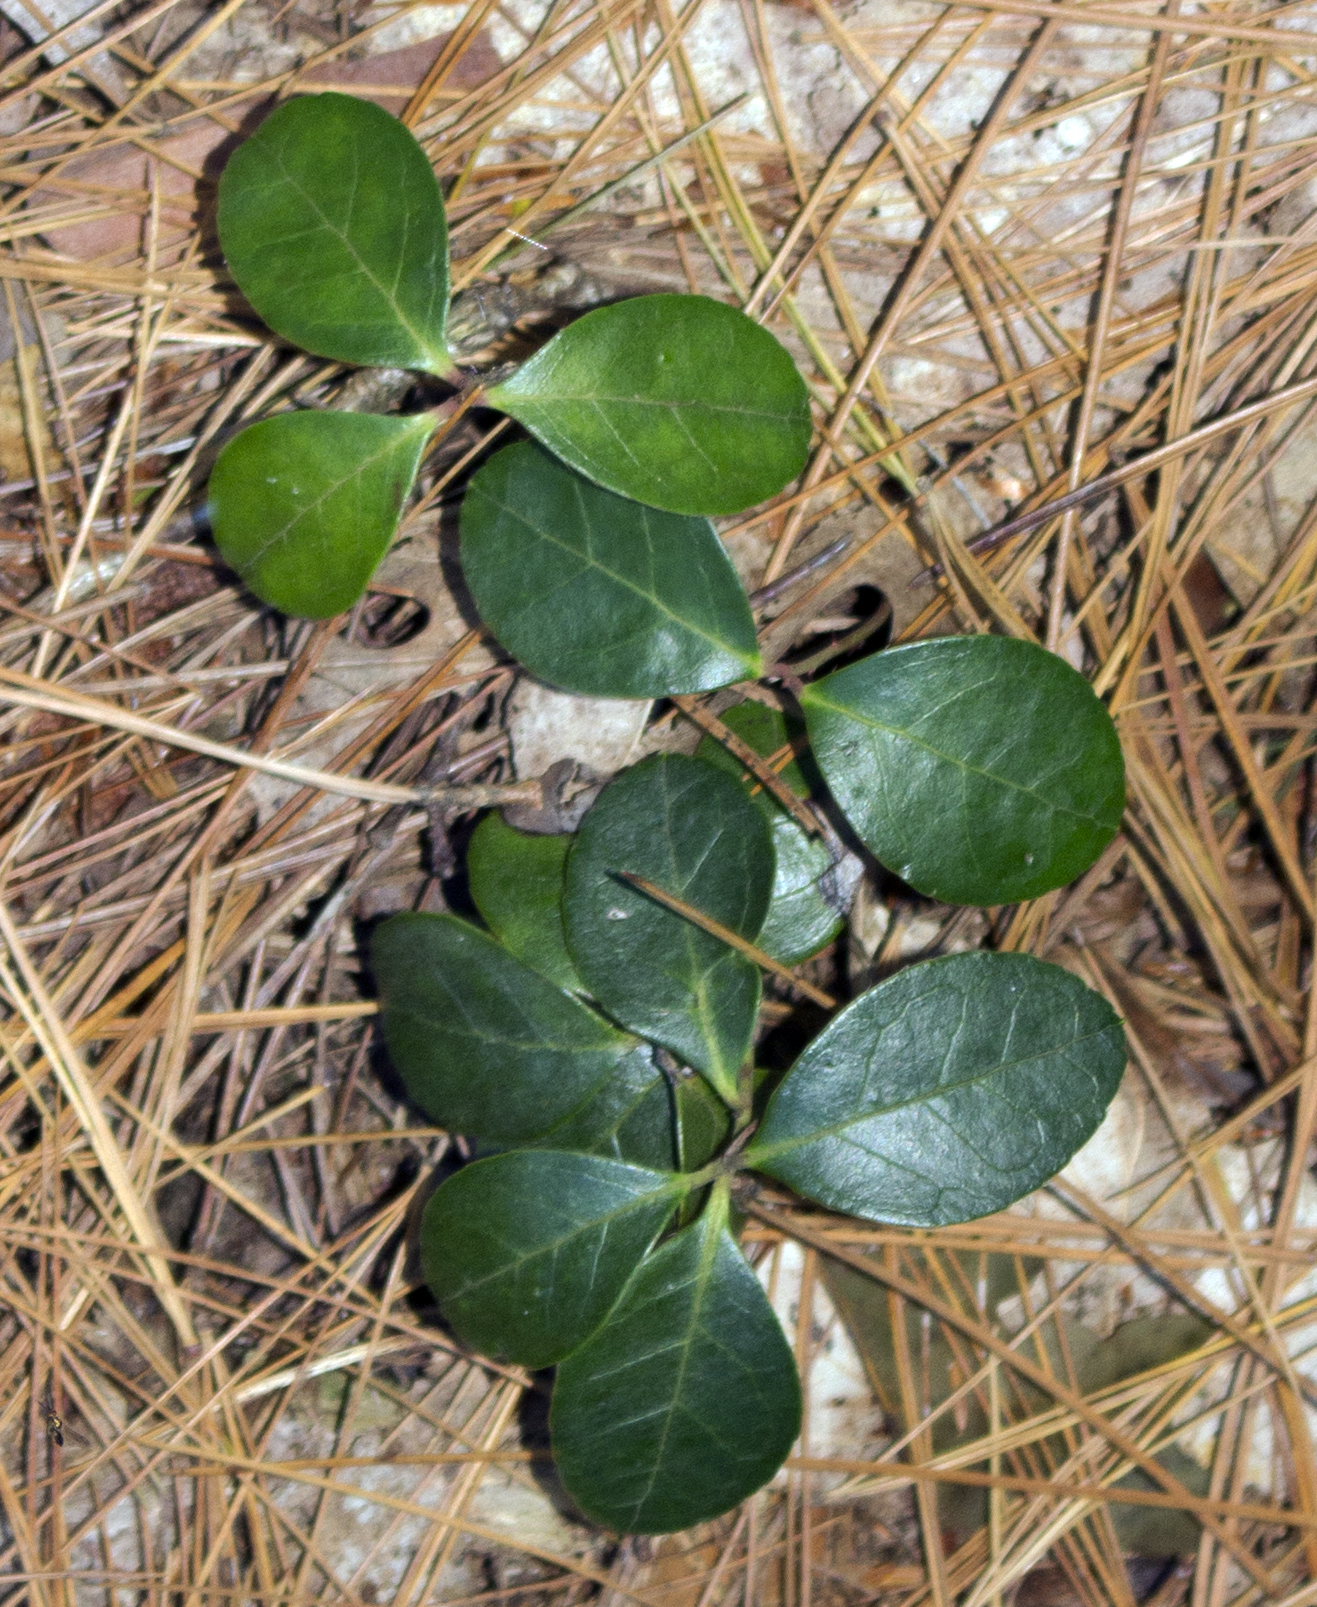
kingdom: Plantae
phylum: Tracheophyta
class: Magnoliopsida
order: Ericales
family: Ericaceae
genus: Gaultheria
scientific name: Gaultheria procumbens
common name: Checkerberry
